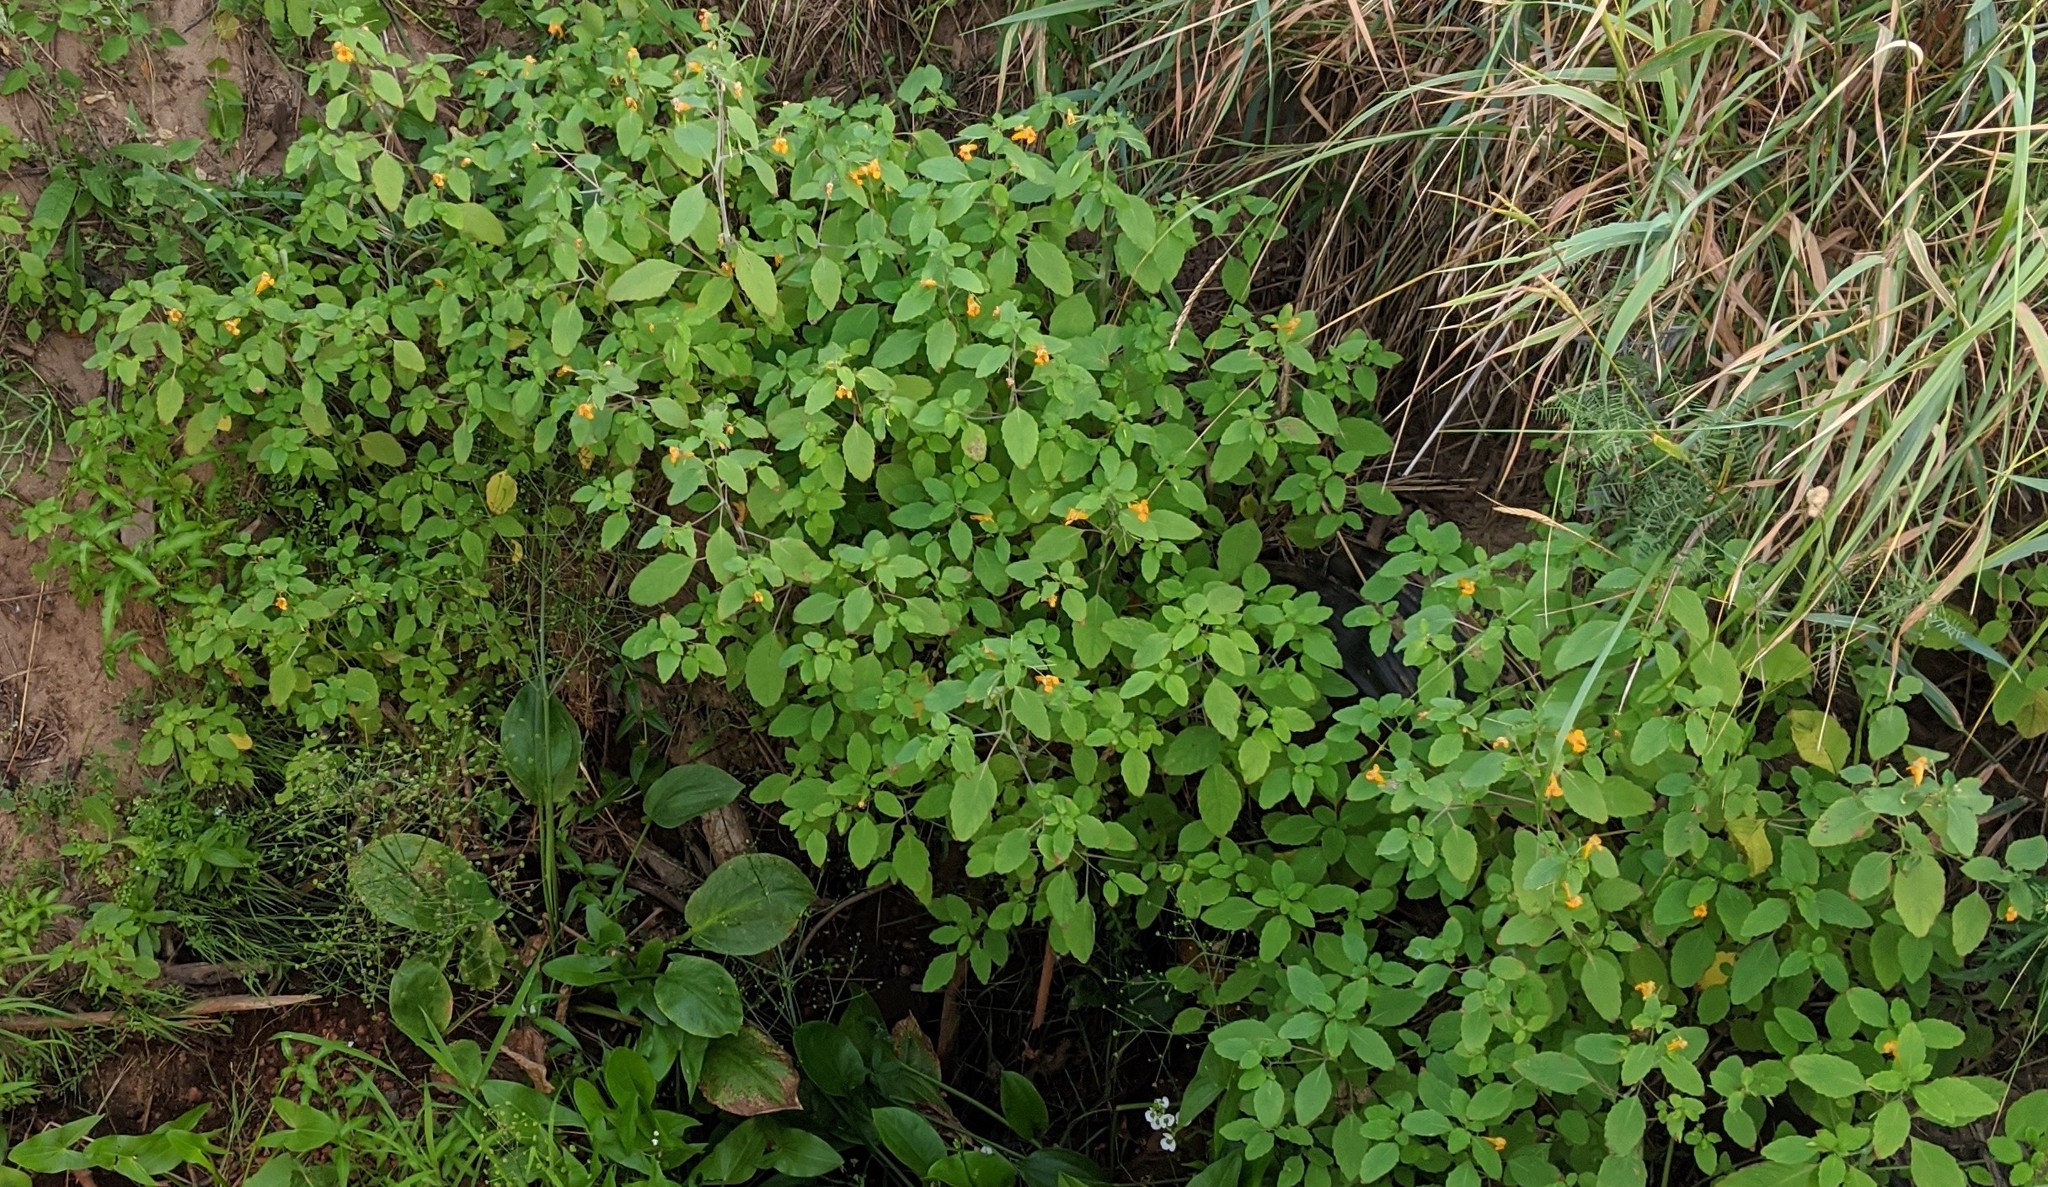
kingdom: Plantae
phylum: Tracheophyta
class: Magnoliopsida
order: Ericales
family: Balsaminaceae
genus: Impatiens
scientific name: Impatiens capensis
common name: Orange balsam
